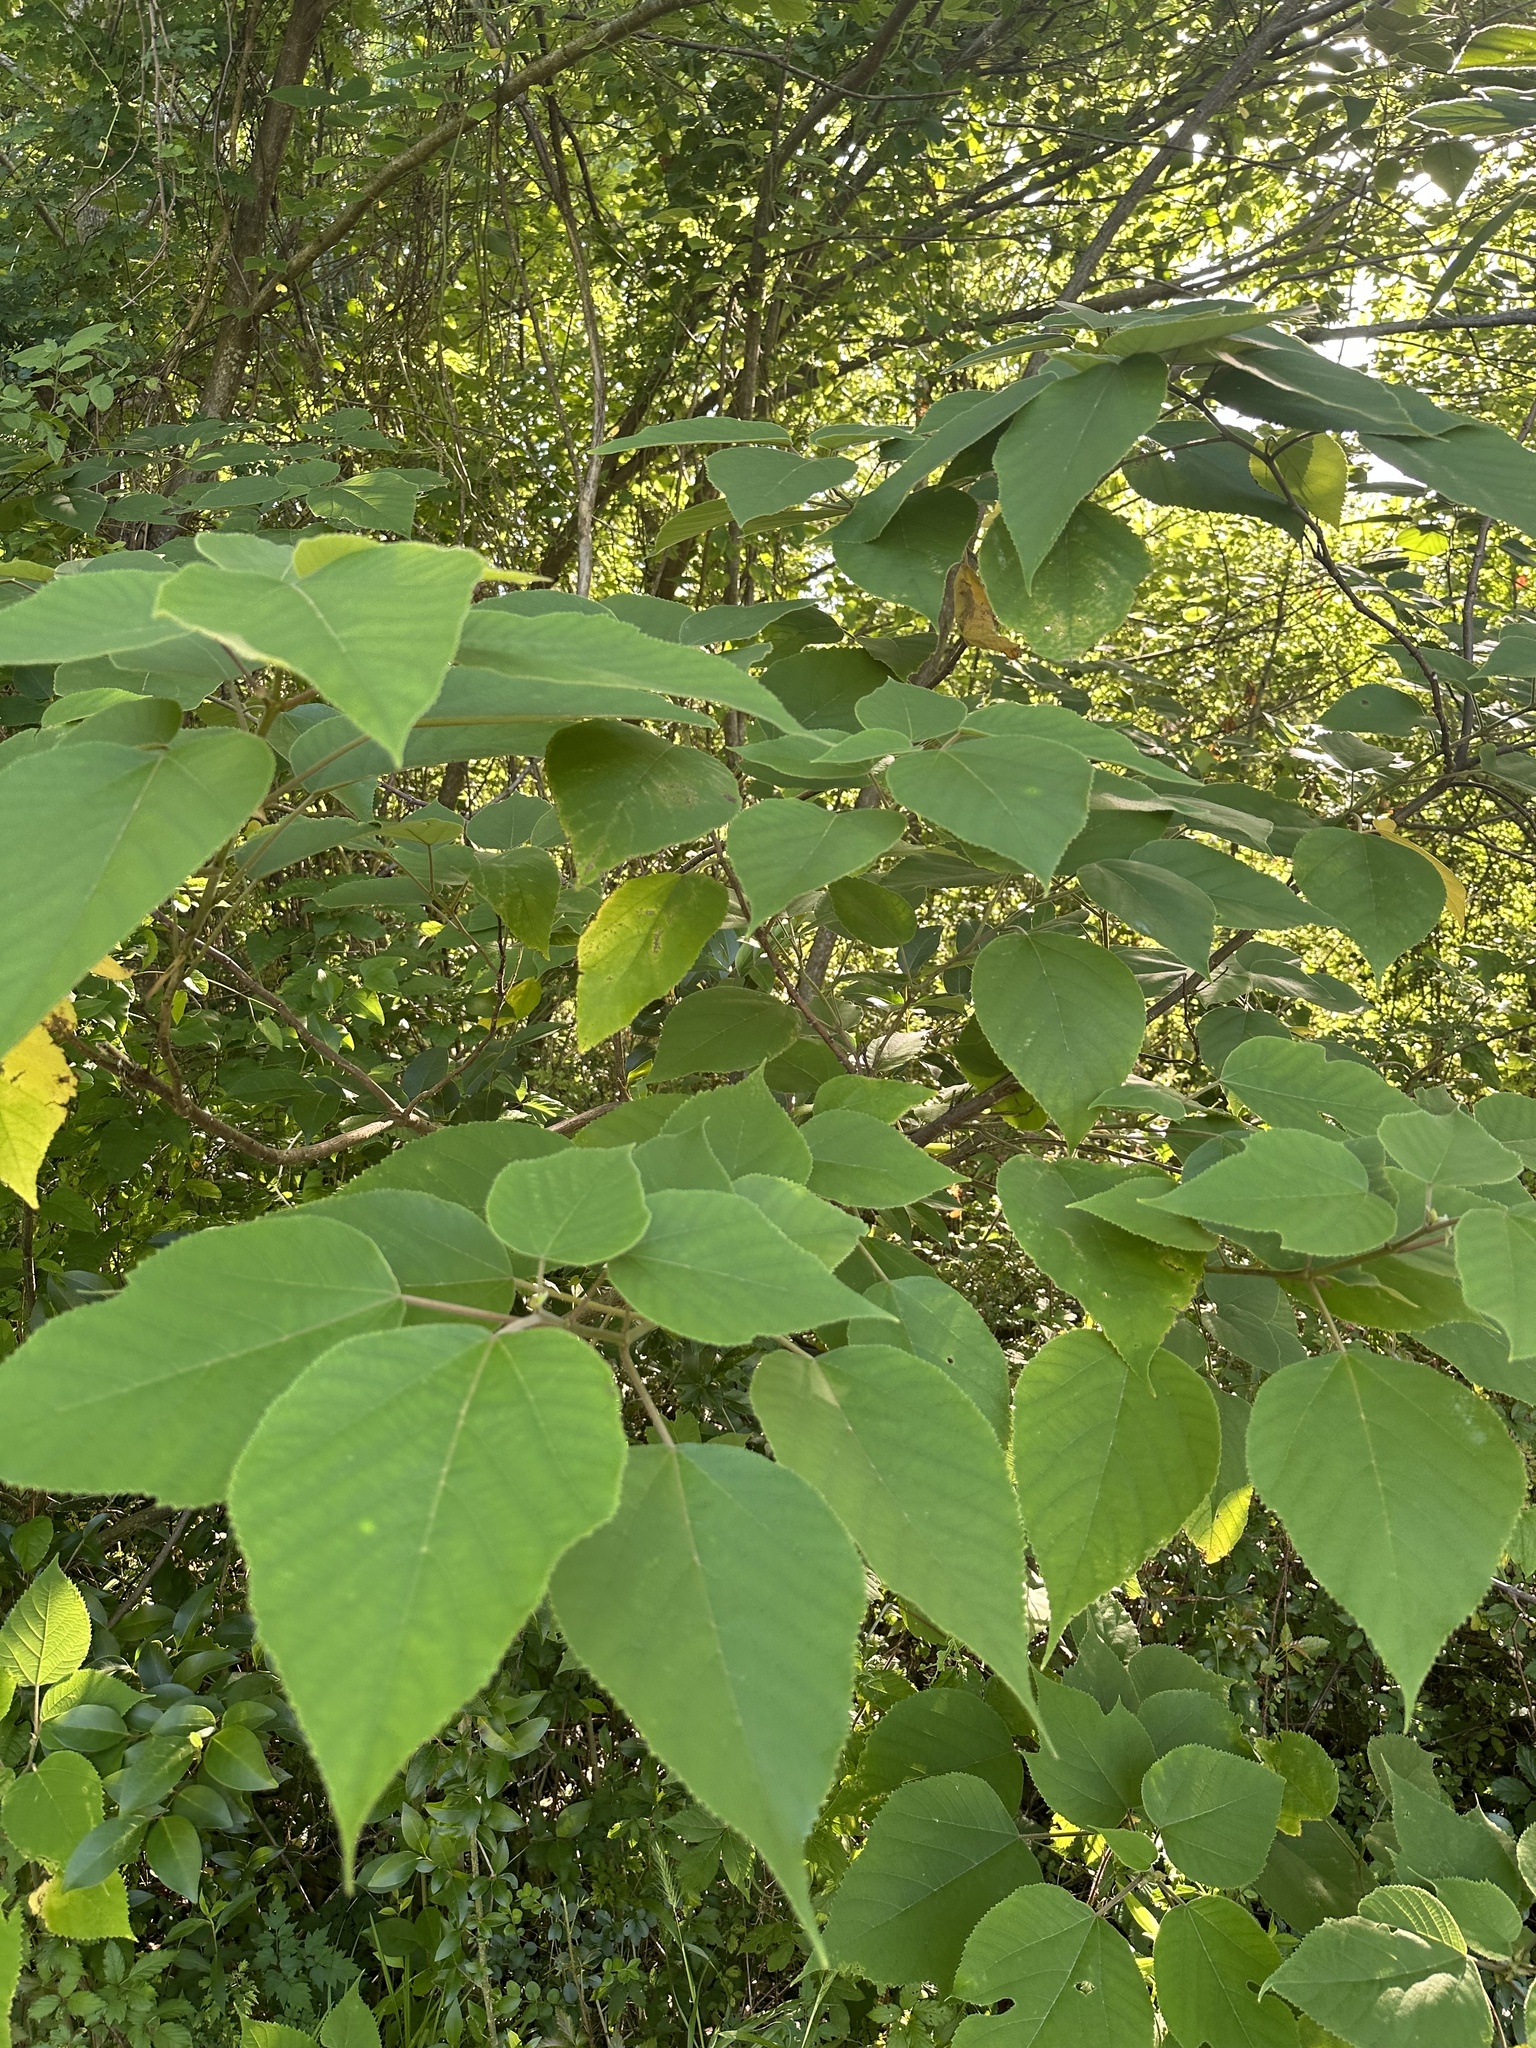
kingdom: Plantae
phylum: Tracheophyta
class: Magnoliopsida
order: Rosales
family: Moraceae
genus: Broussonetia
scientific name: Broussonetia papyrifera
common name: Paper mulberry
